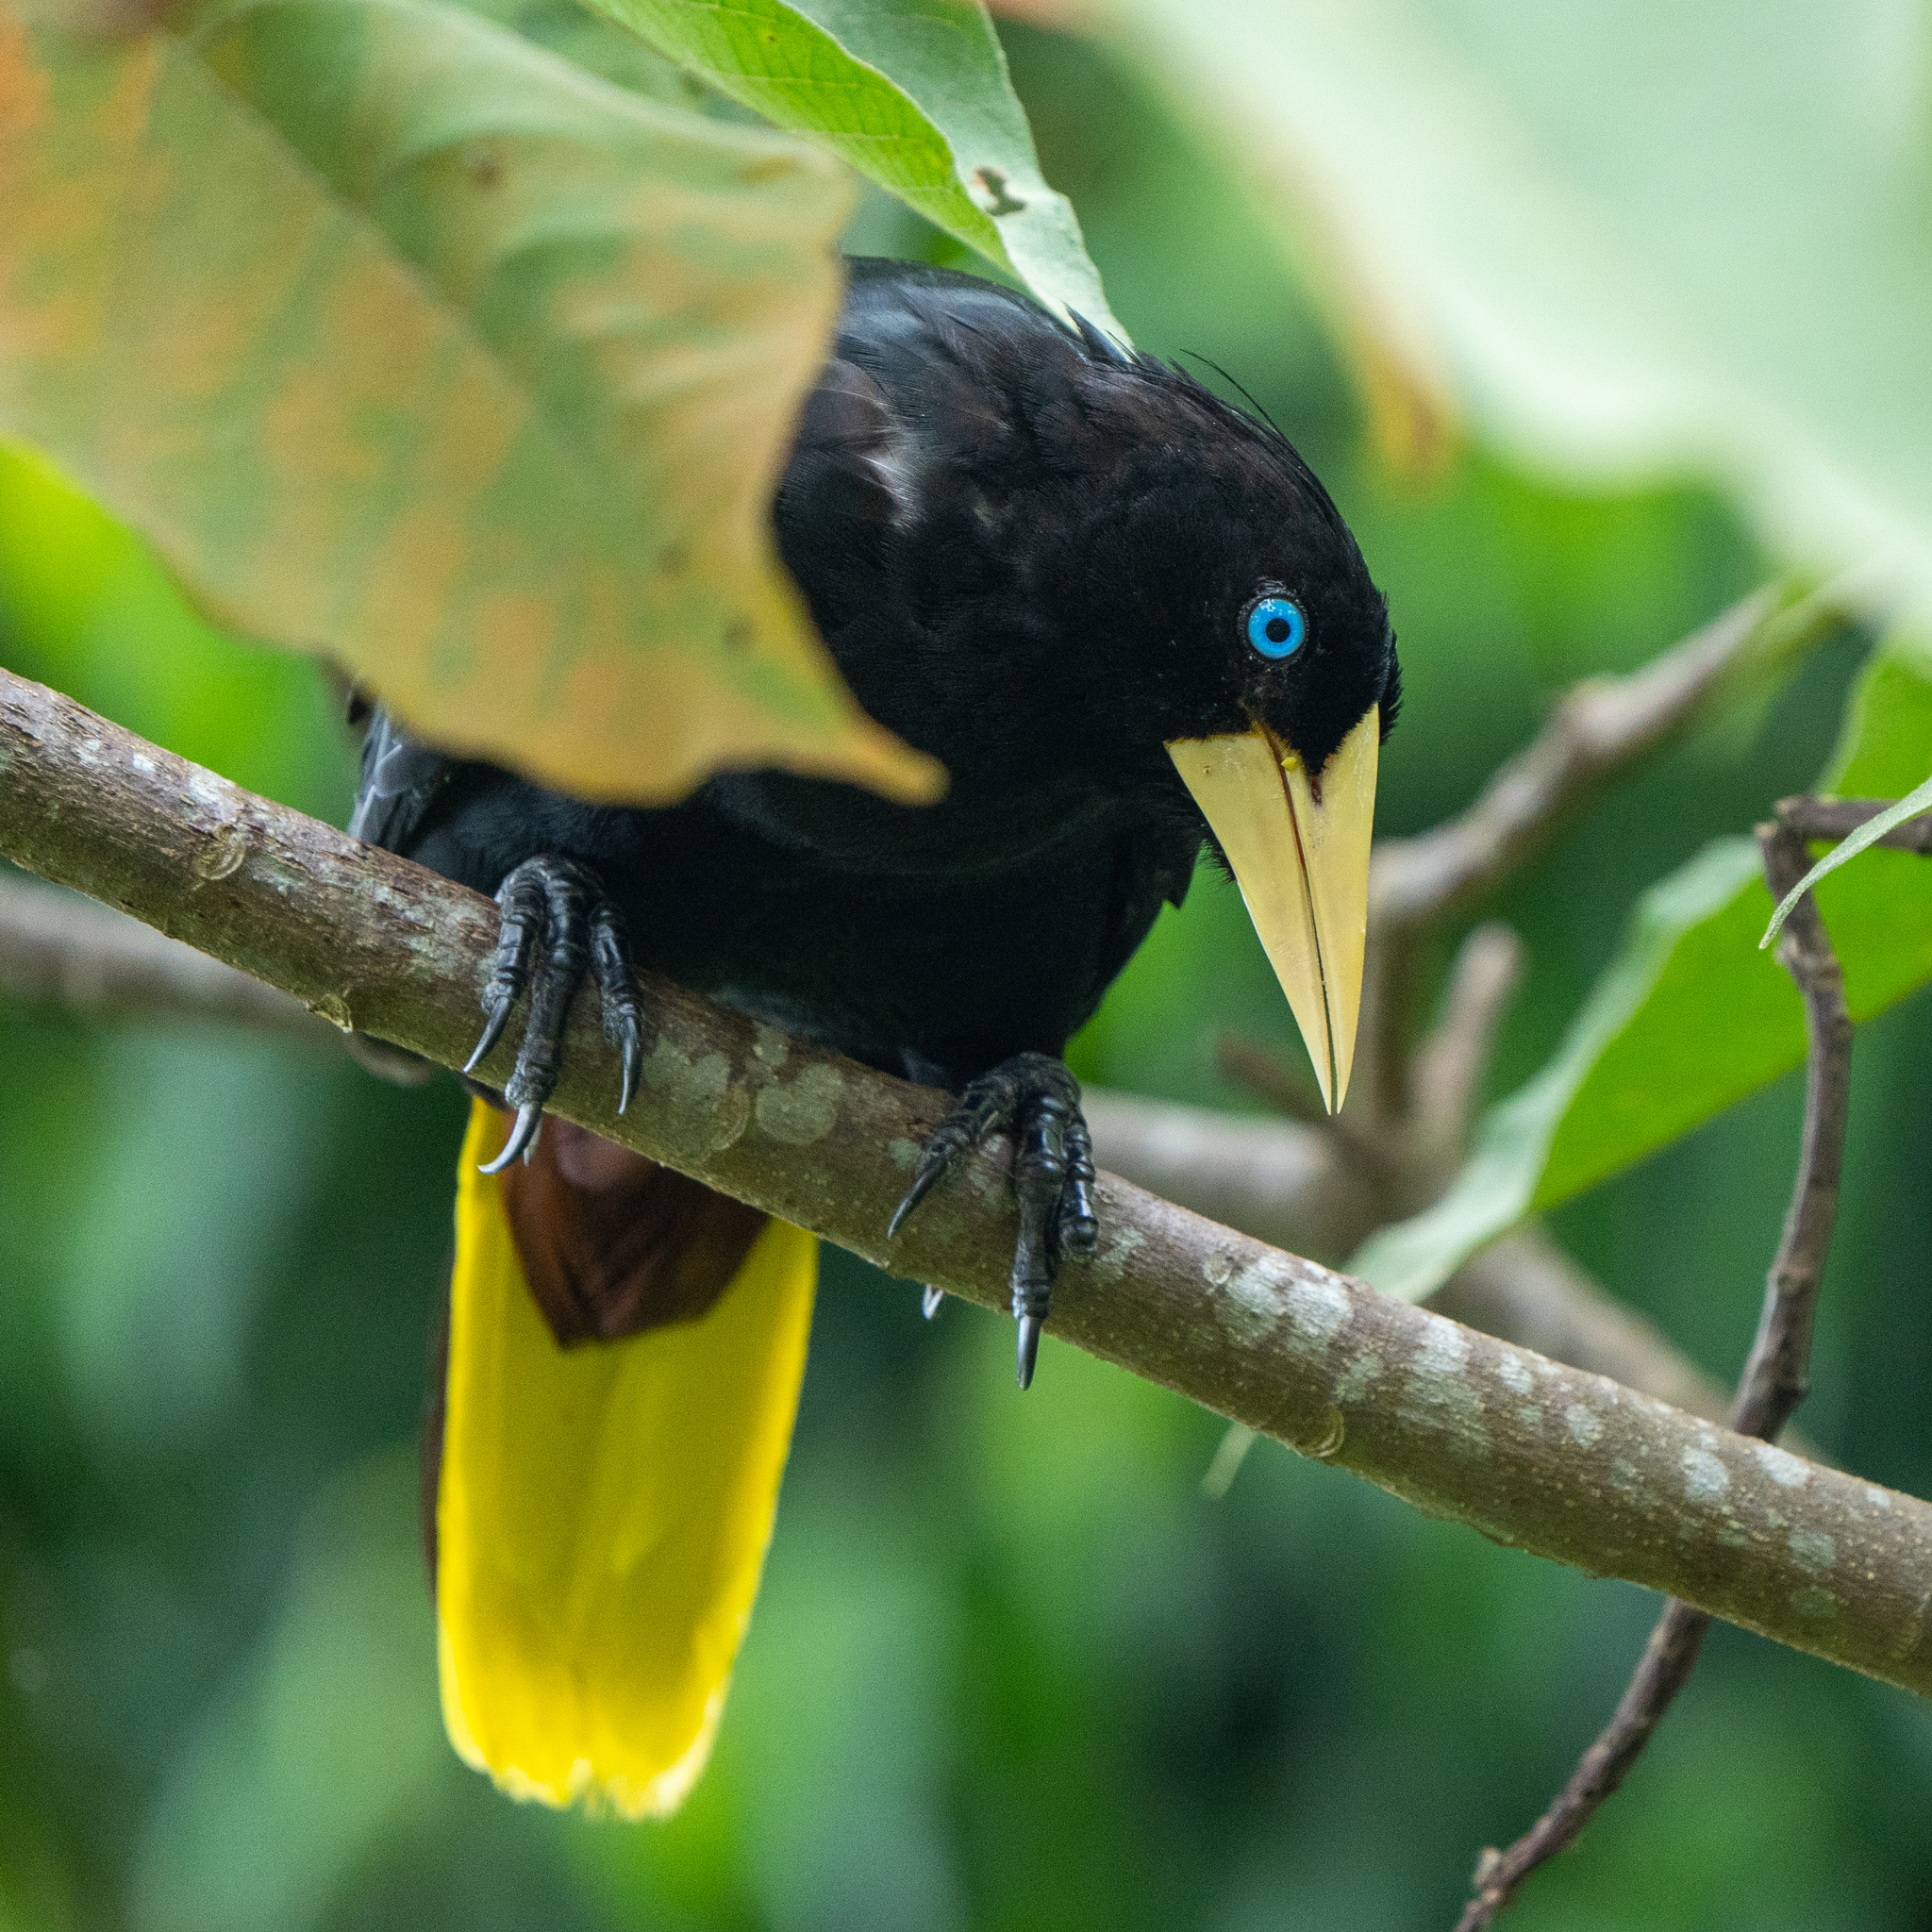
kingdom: Animalia
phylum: Chordata
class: Aves
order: Passeriformes
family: Icteridae
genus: Psarocolius
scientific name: Psarocolius decumanus
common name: Crested oropendola
